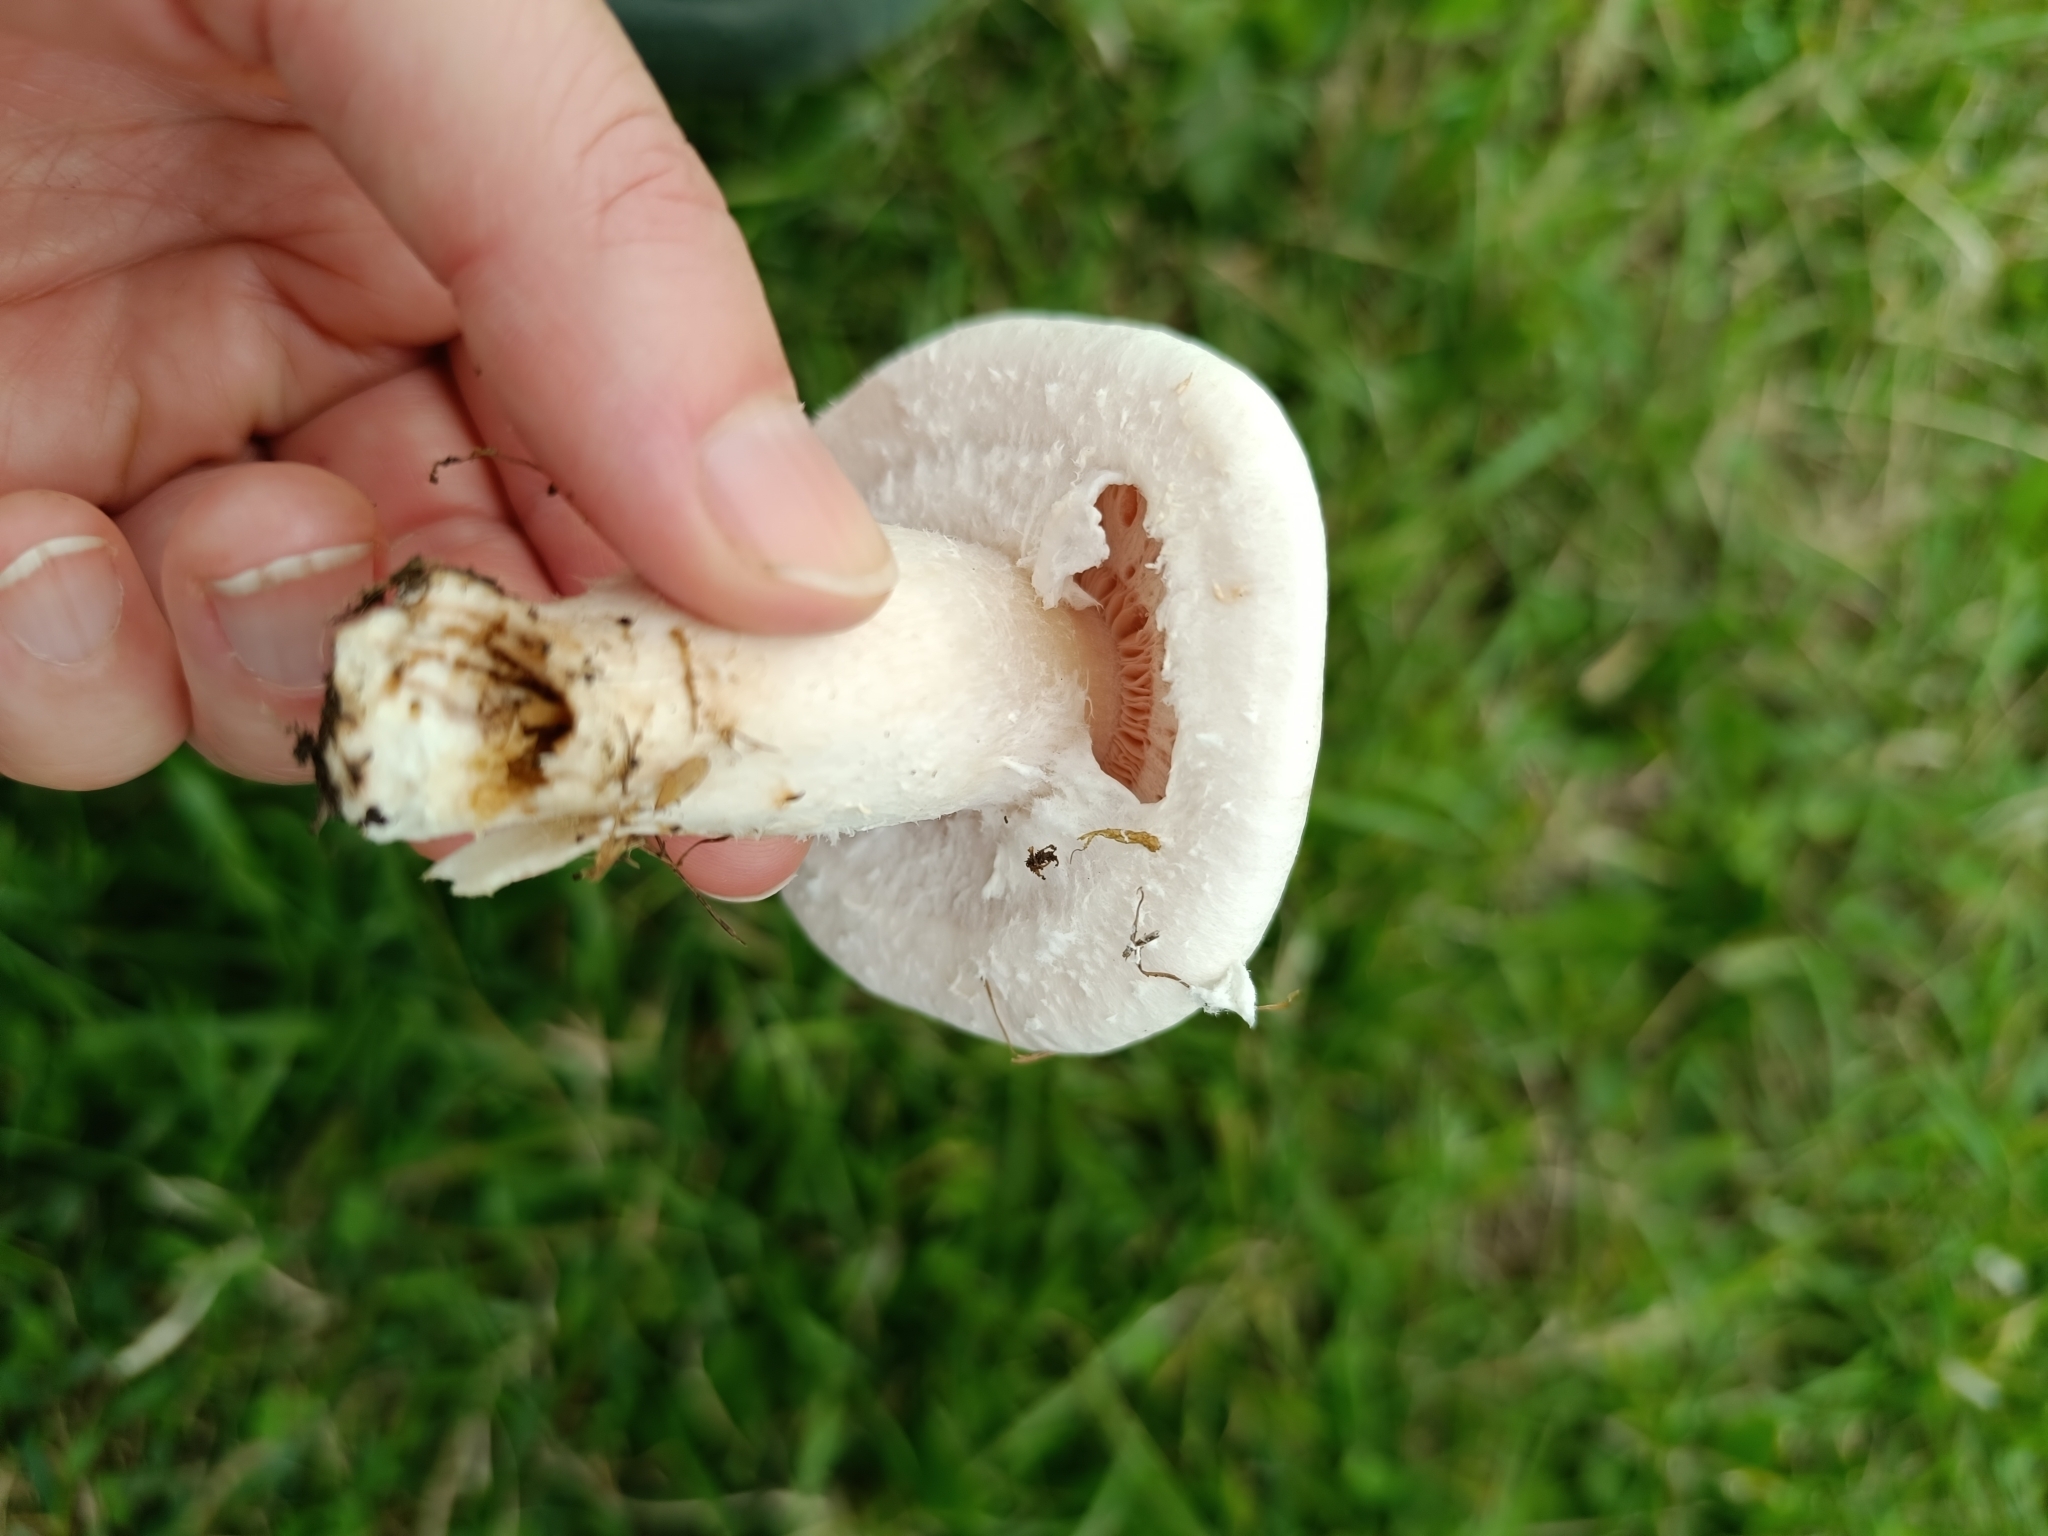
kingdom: Fungi
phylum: Basidiomycota
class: Agaricomycetes
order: Agaricales
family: Agaricaceae
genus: Agaricus
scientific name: Agaricus campestris
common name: Field mushroom
